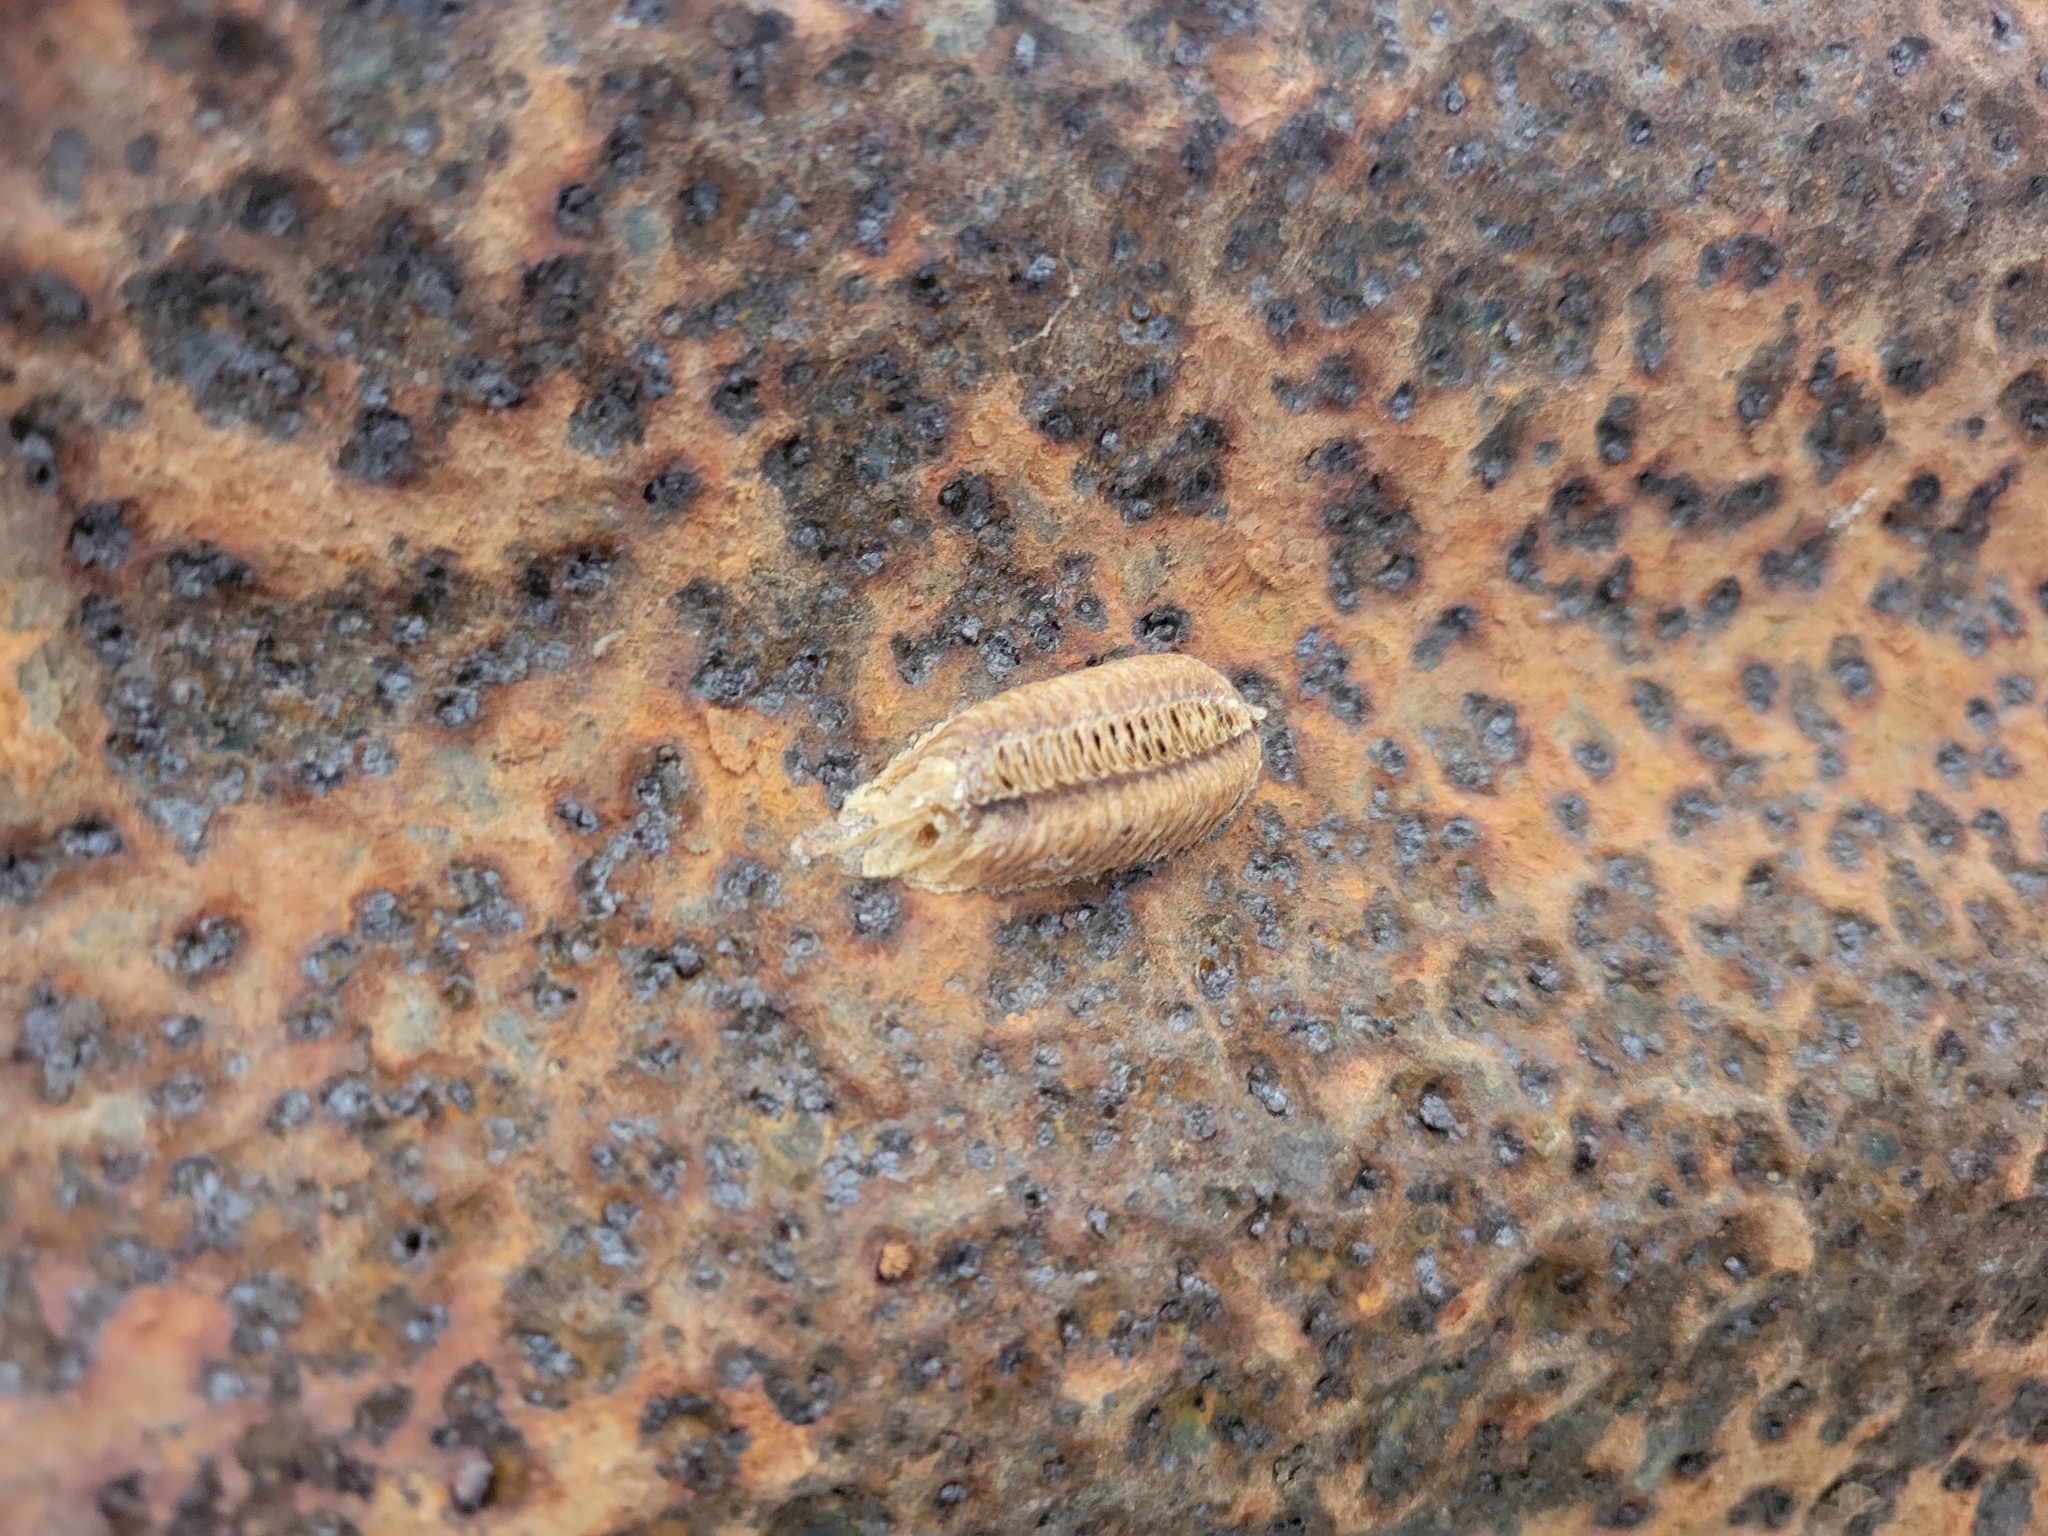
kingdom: Animalia
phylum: Arthropoda
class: Insecta
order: Mantodea
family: Mantidae
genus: Stagmomantis
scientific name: Stagmomantis carolina
